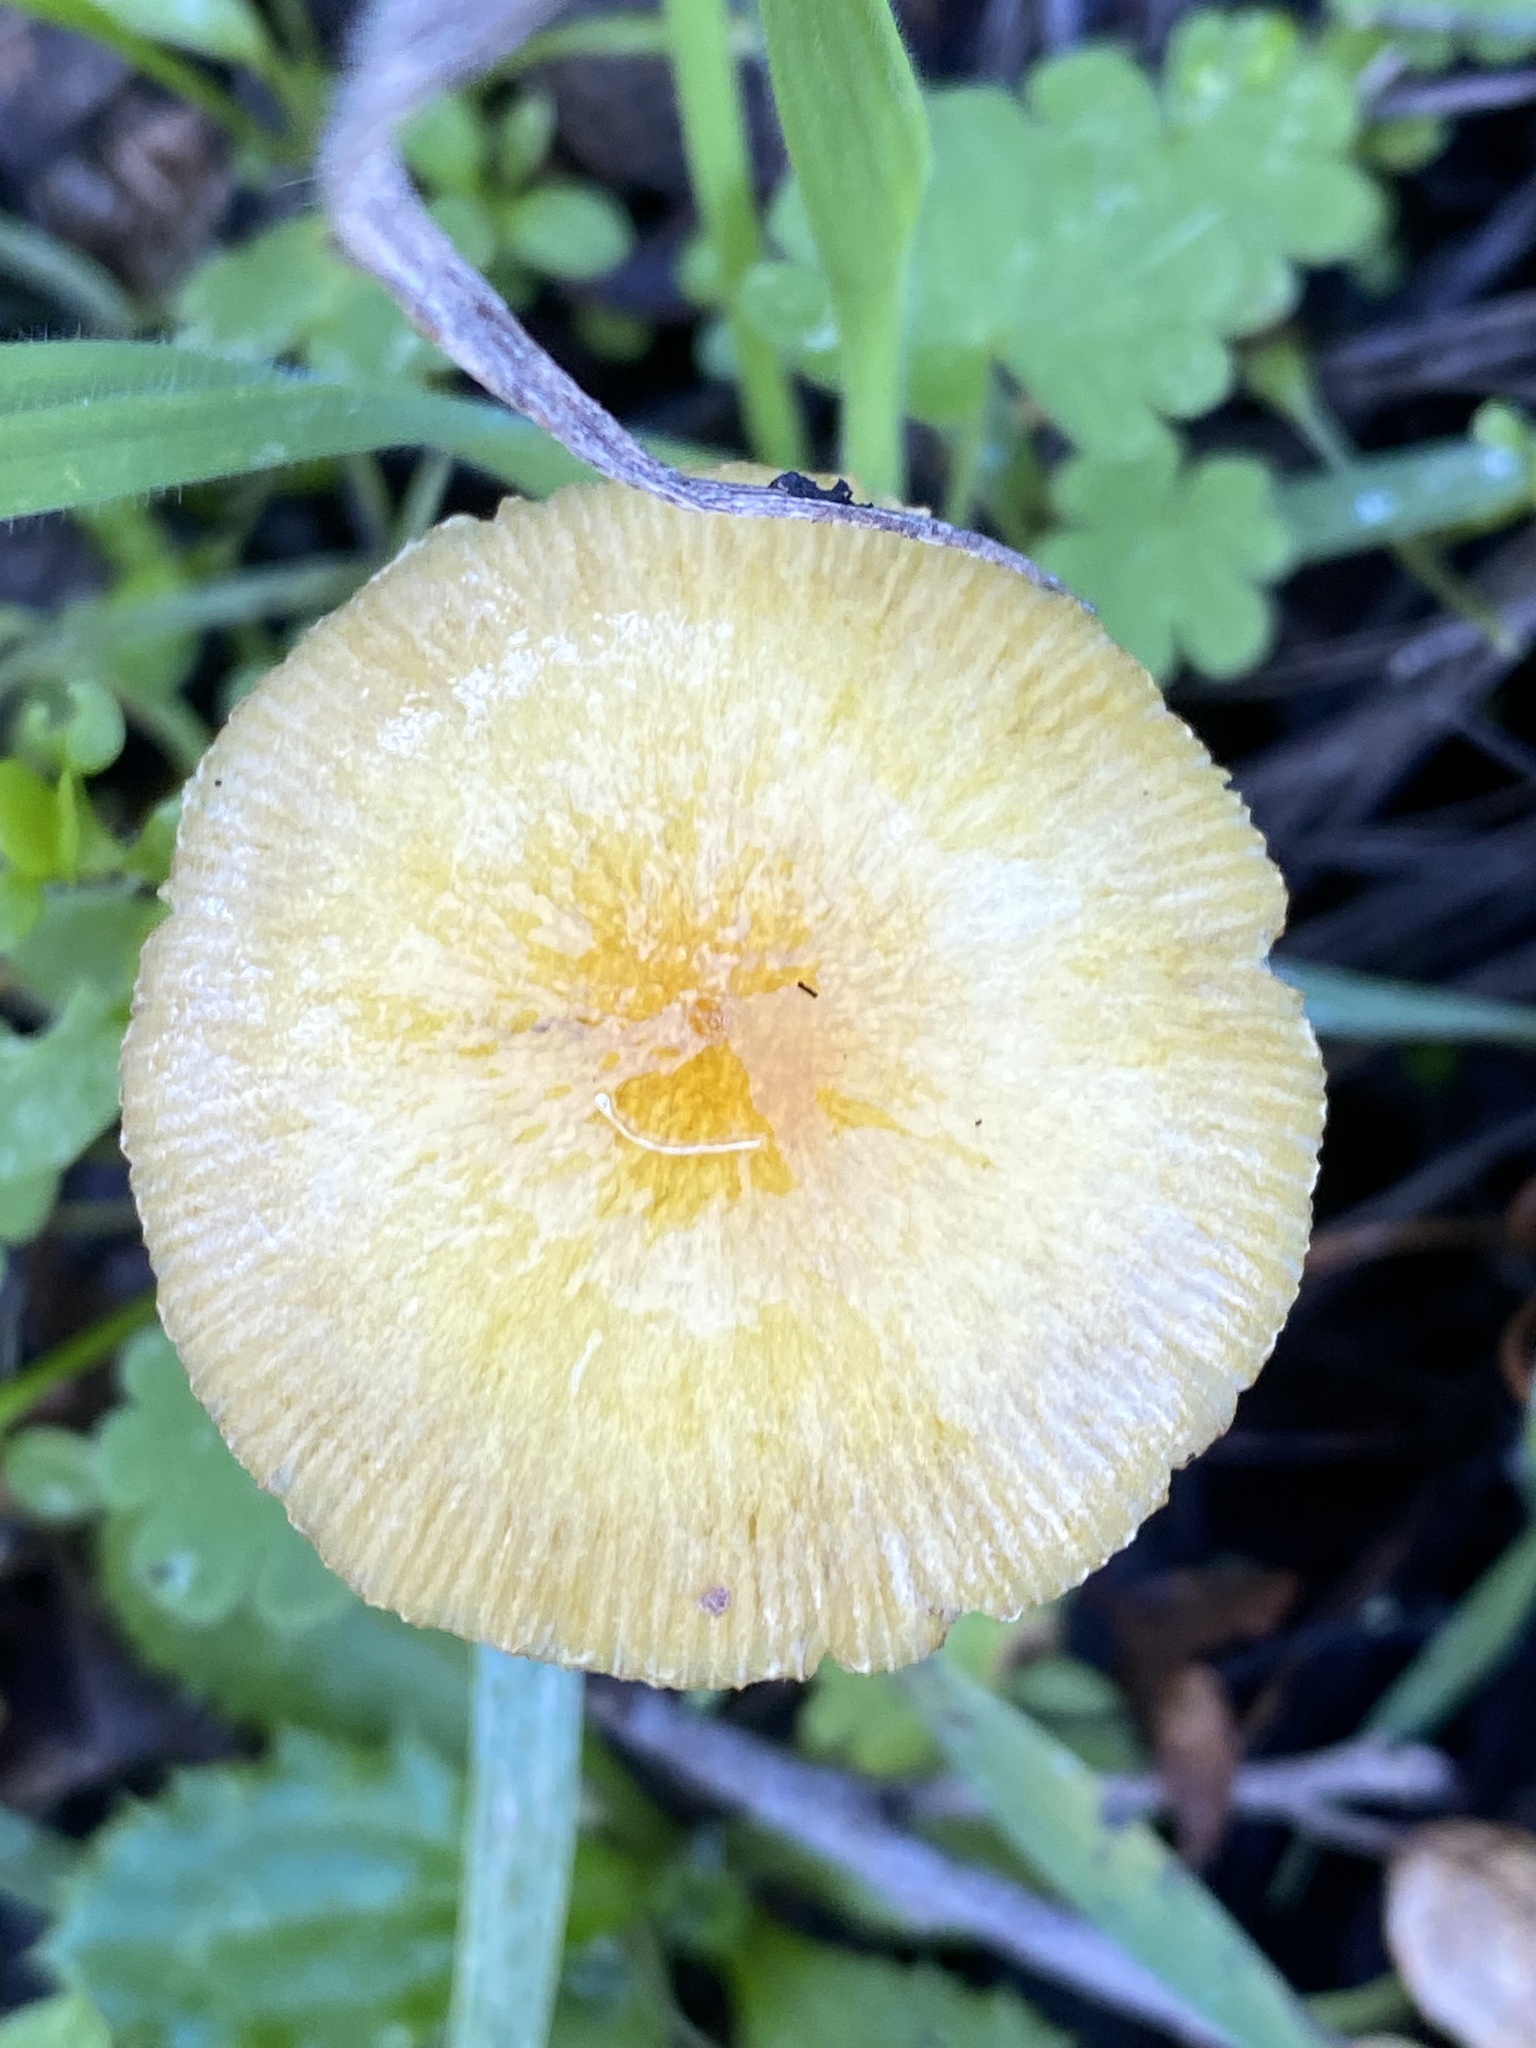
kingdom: Fungi
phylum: Basidiomycota
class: Agaricomycetes
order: Agaricales
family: Bolbitiaceae
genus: Bolbitius
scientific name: Bolbitius titubans
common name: Yellow fieldcap
